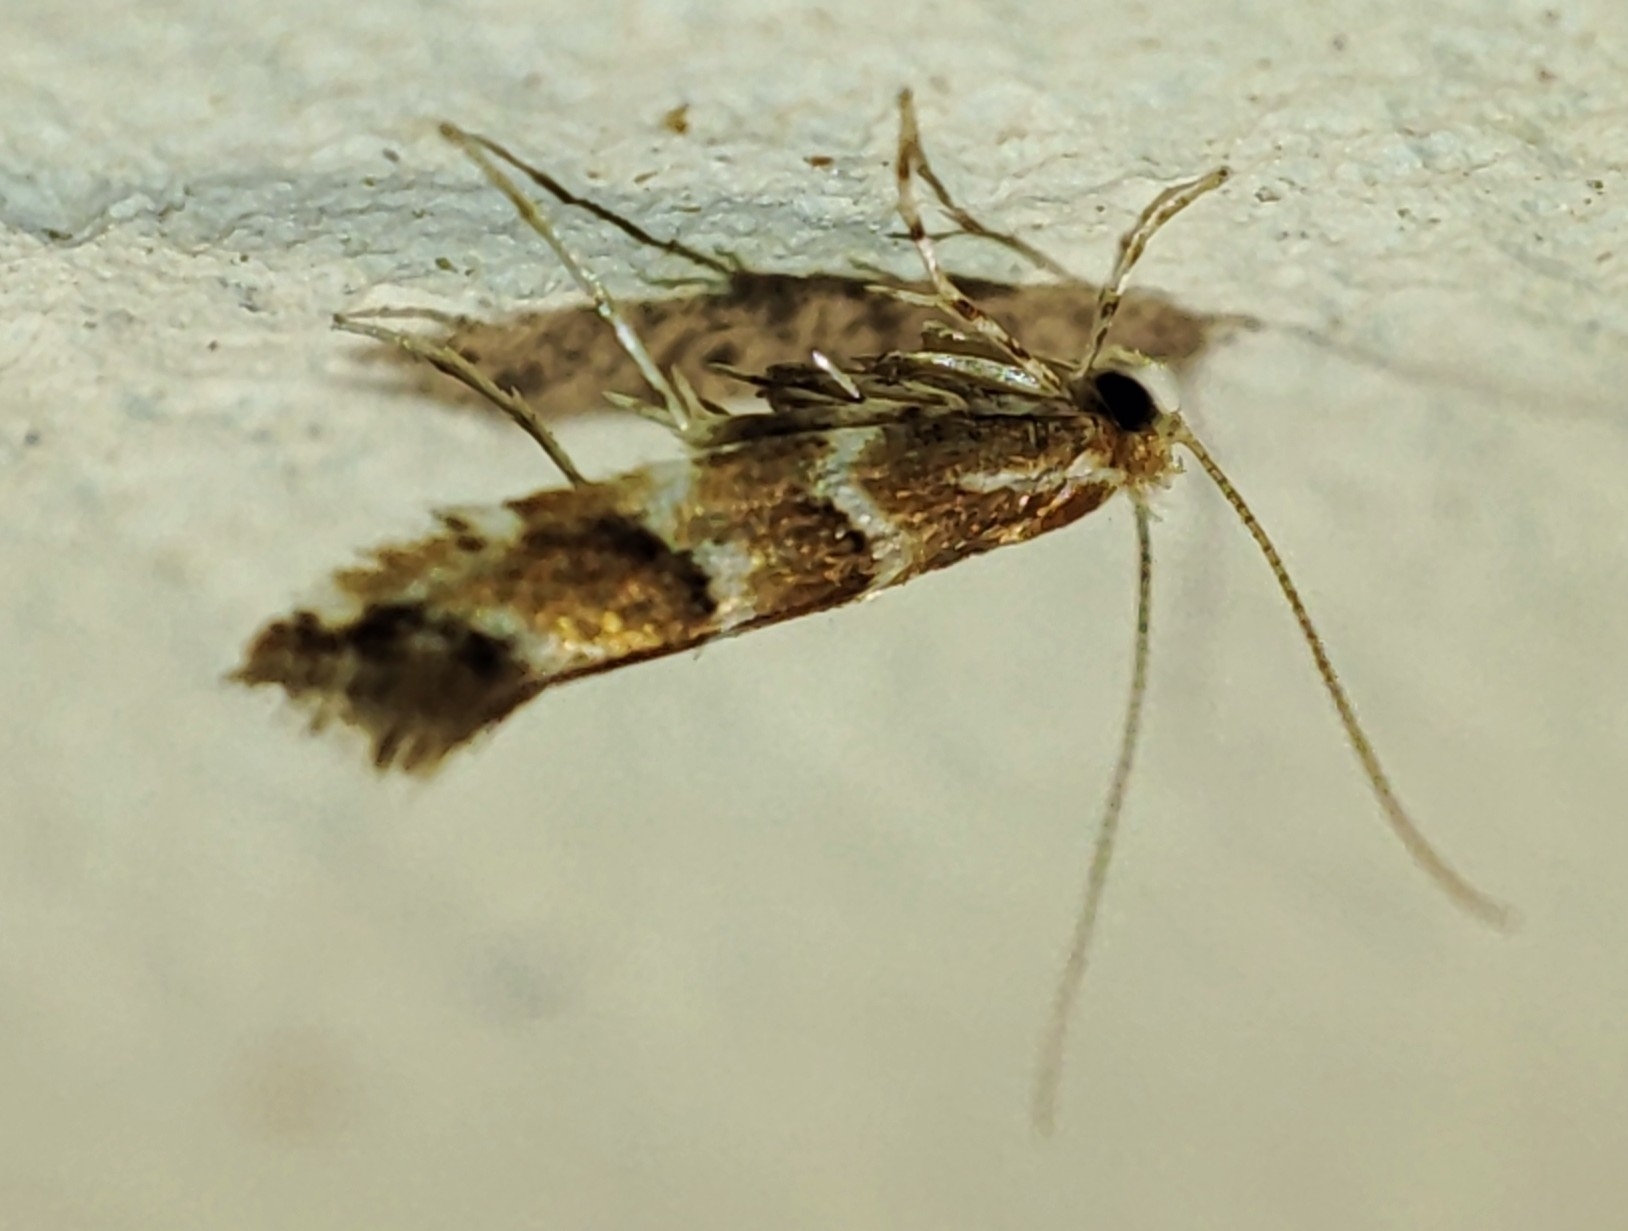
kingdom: Animalia
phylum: Arthropoda
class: Insecta
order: Lepidoptera
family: Gracillariidae
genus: Cameraria
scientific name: Cameraria ohridella
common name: Horse-chestnut leaf-miner
